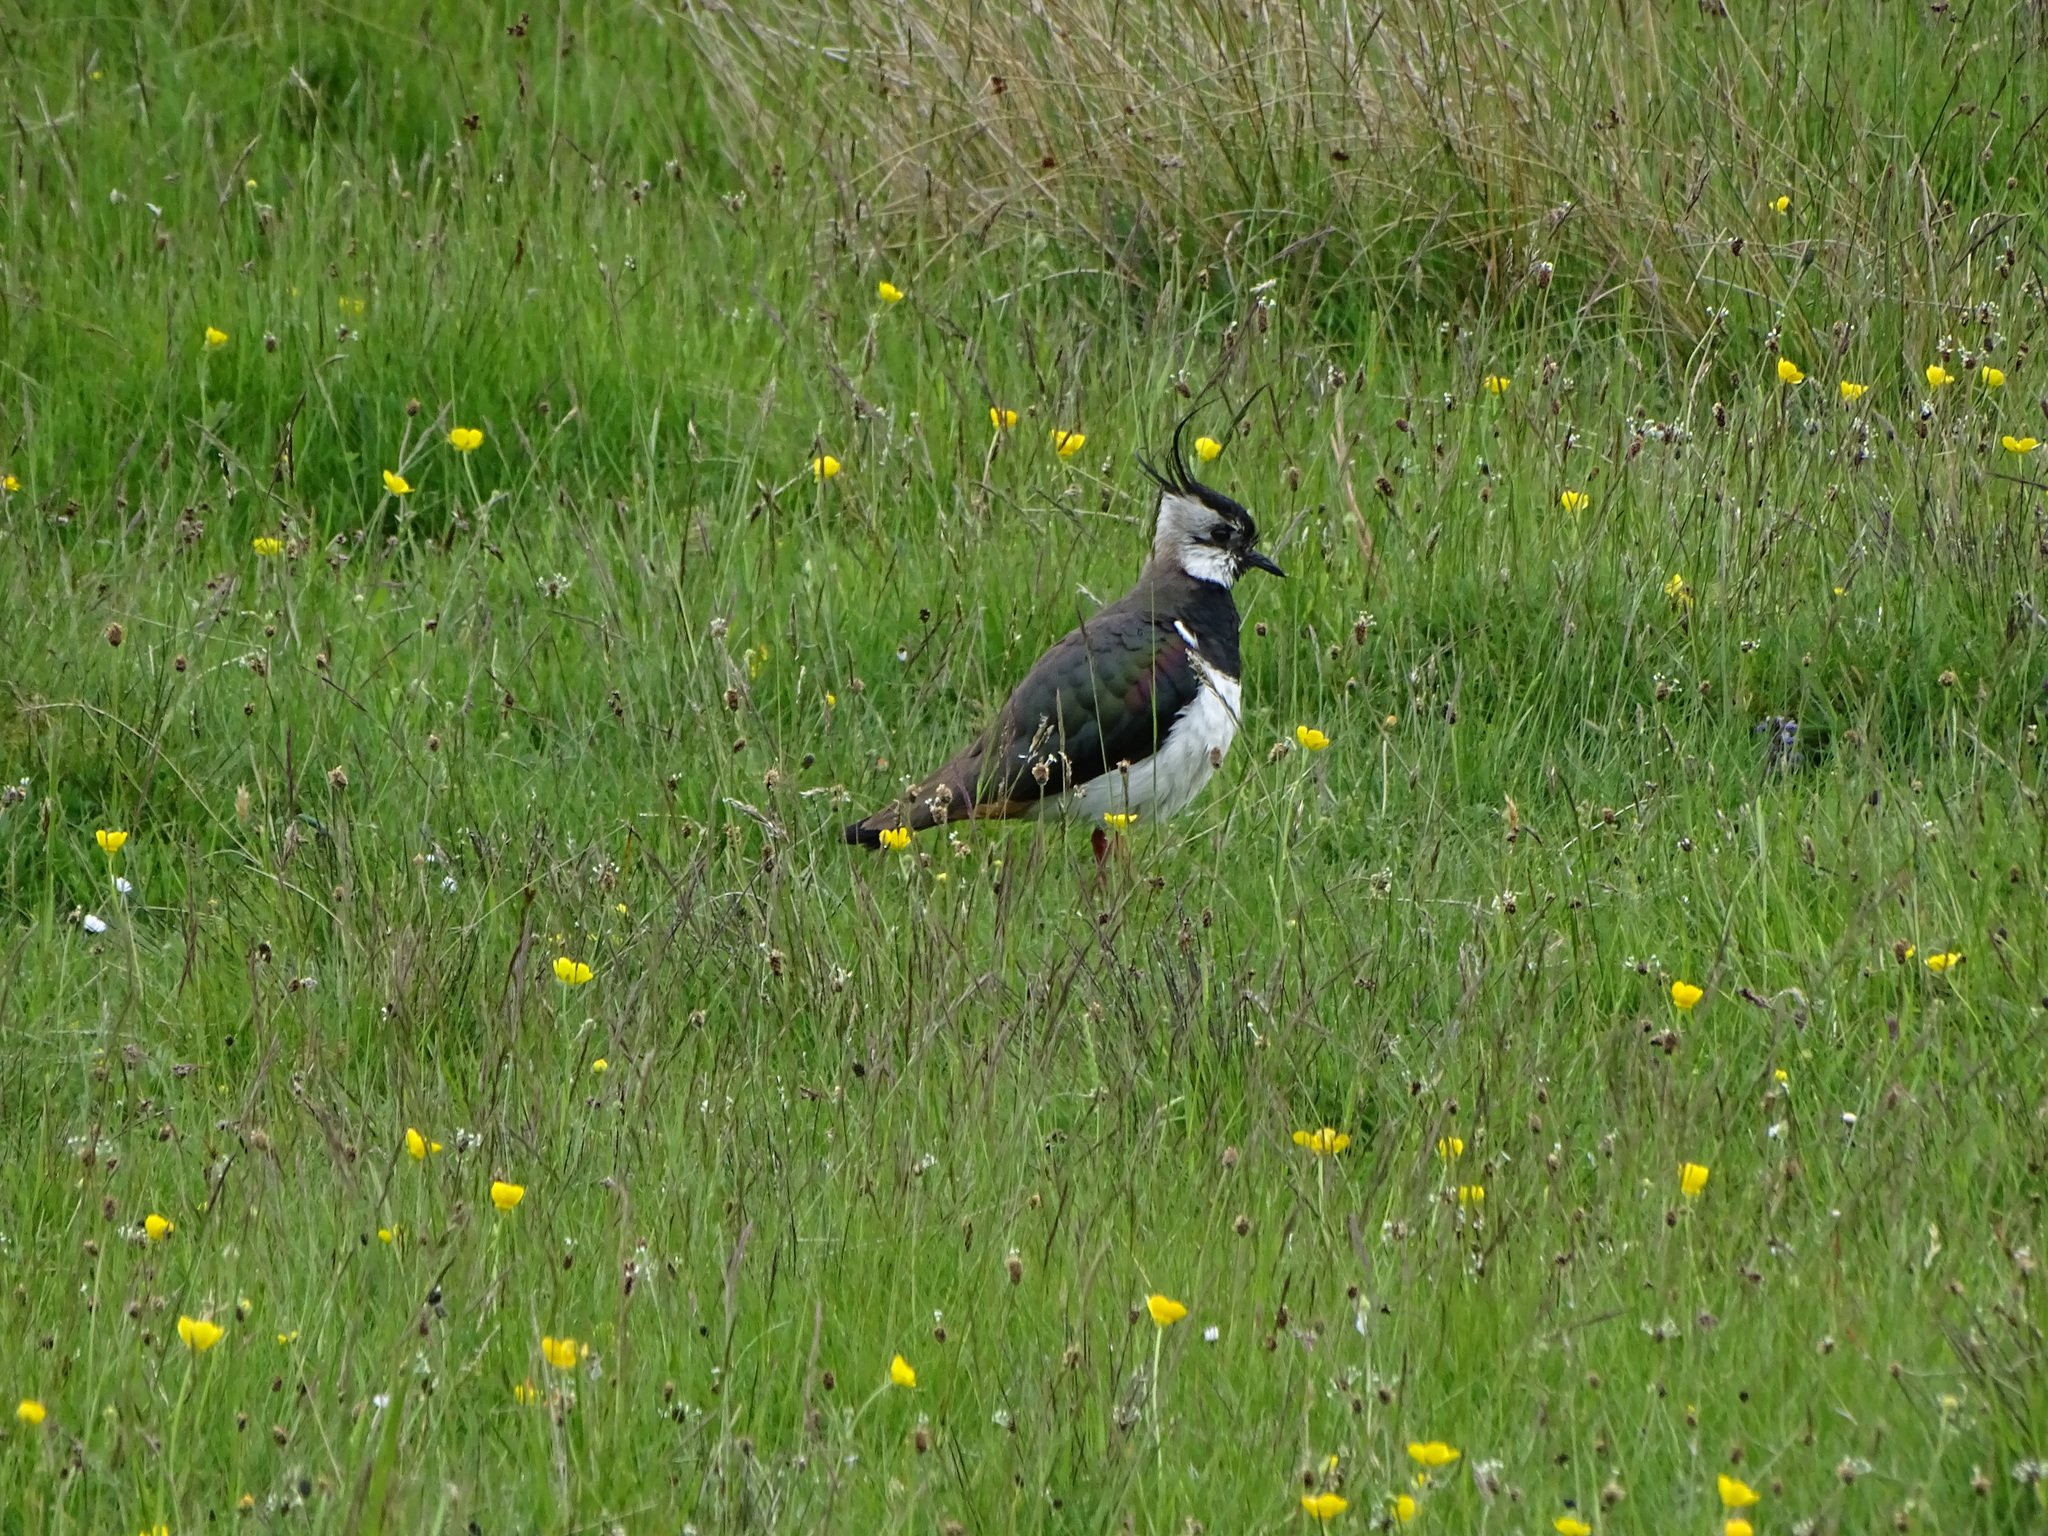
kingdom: Animalia
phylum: Chordata
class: Aves
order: Charadriiformes
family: Charadriidae
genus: Vanellus
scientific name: Vanellus vanellus
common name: Northern lapwing
